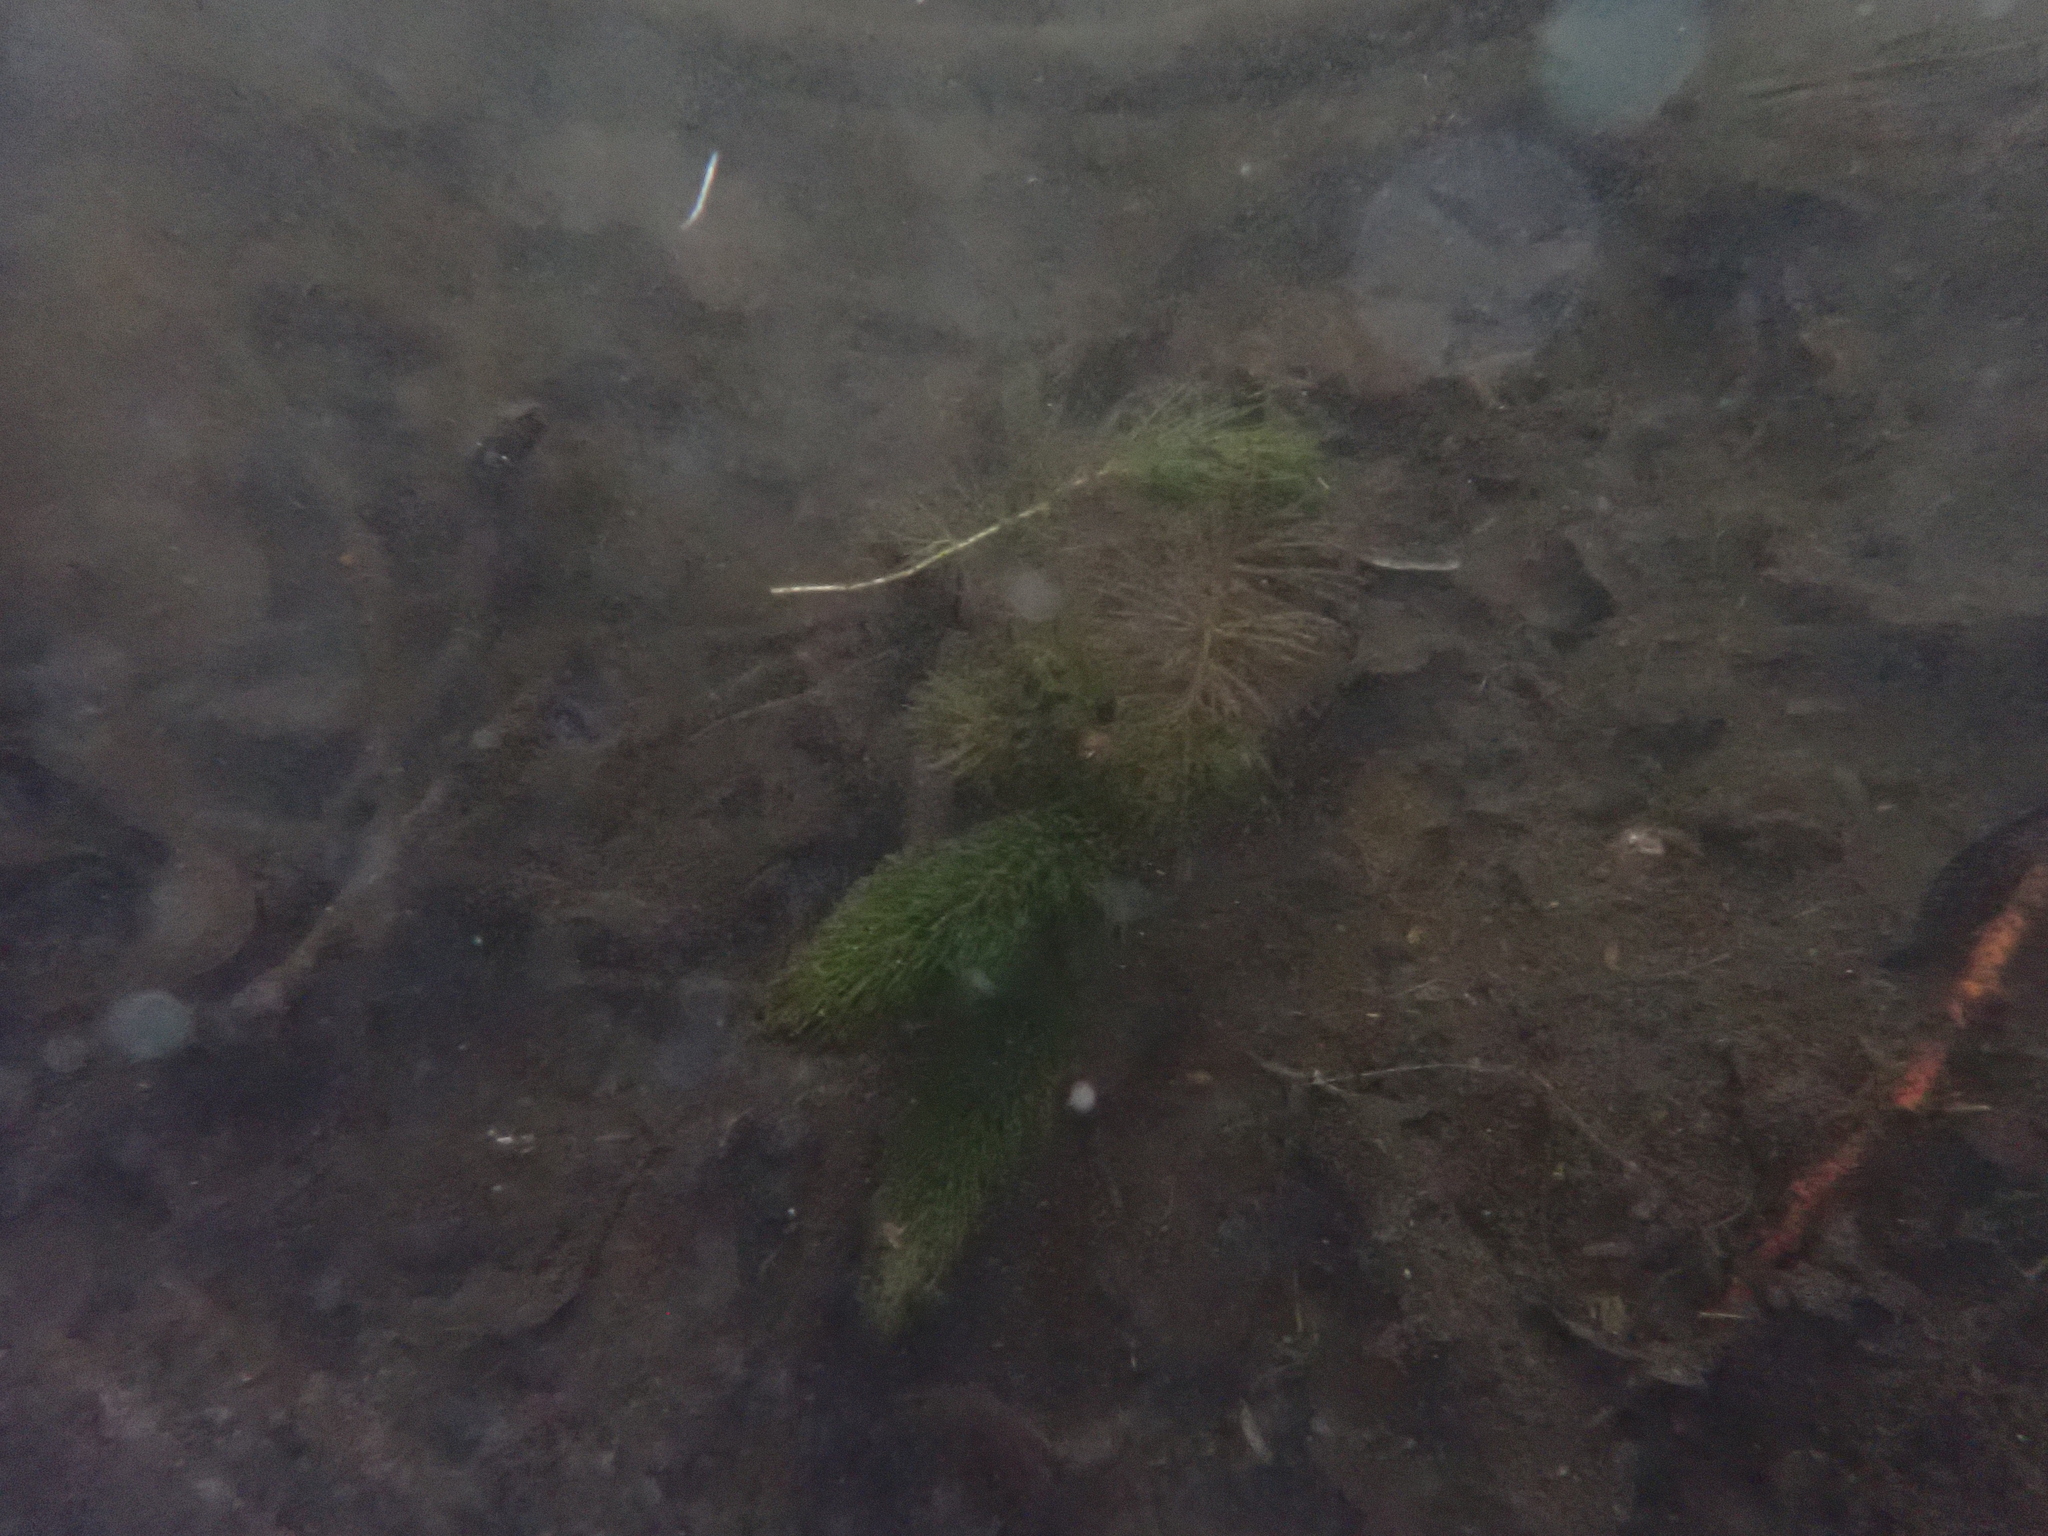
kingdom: Plantae
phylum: Tracheophyta
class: Magnoliopsida
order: Ceratophyllales
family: Ceratophyllaceae
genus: Ceratophyllum
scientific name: Ceratophyllum demersum
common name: Rigid hornwort
